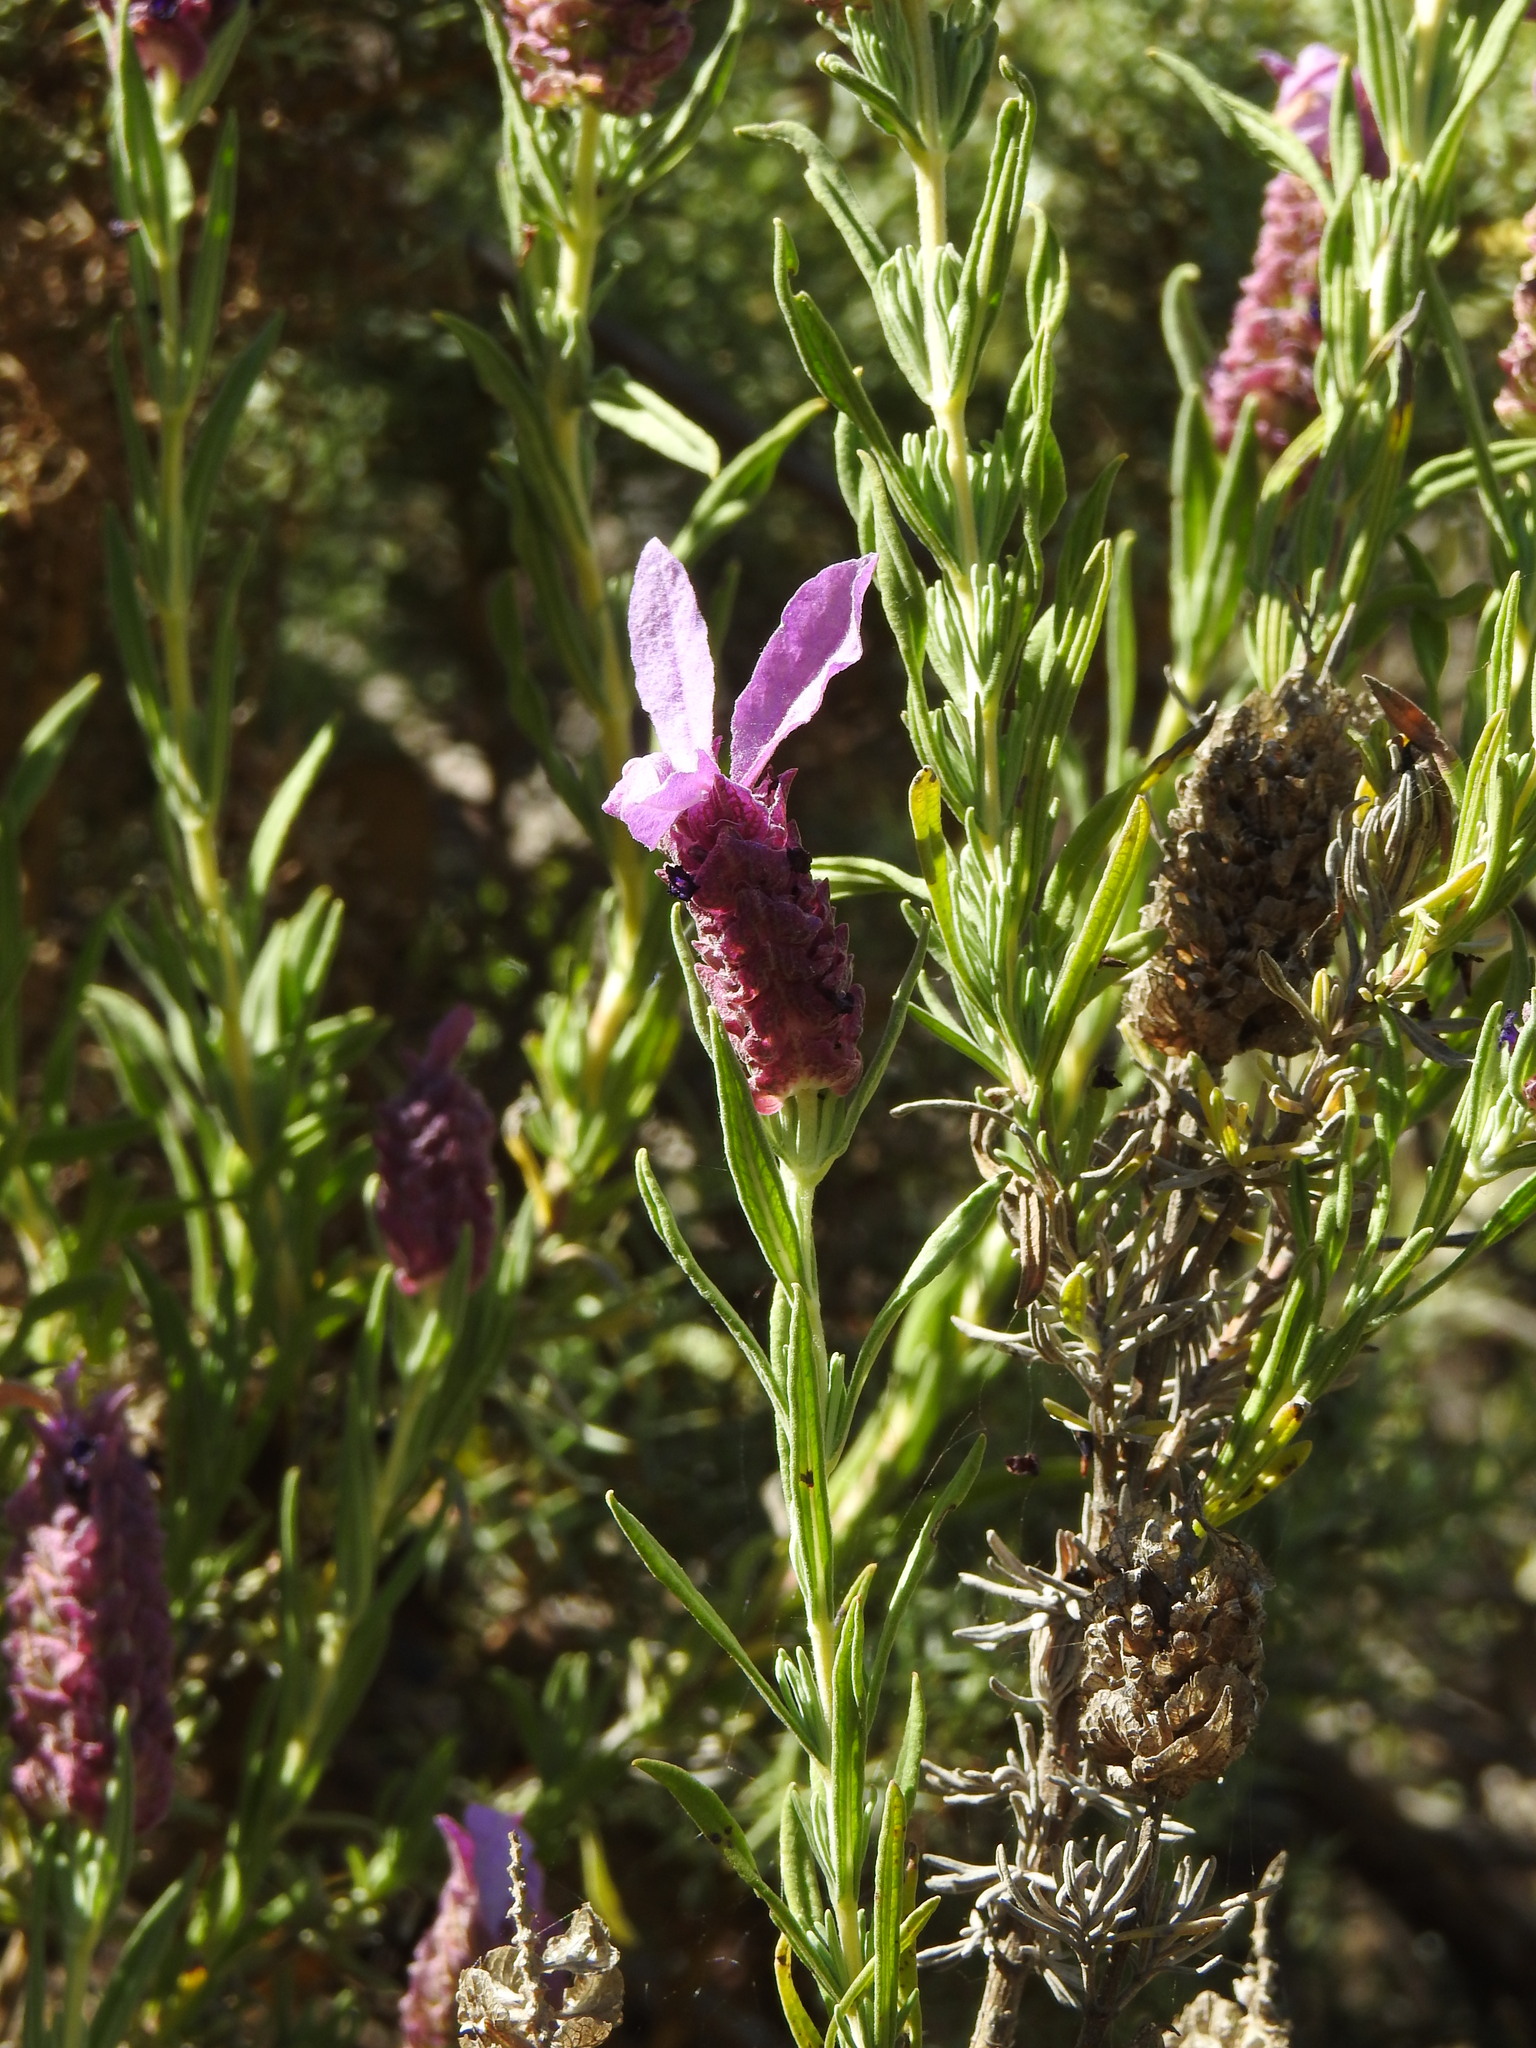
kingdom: Plantae
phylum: Tracheophyta
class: Magnoliopsida
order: Lamiales
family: Lamiaceae
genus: Lavandula
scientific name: Lavandula stoechas
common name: French lavender
